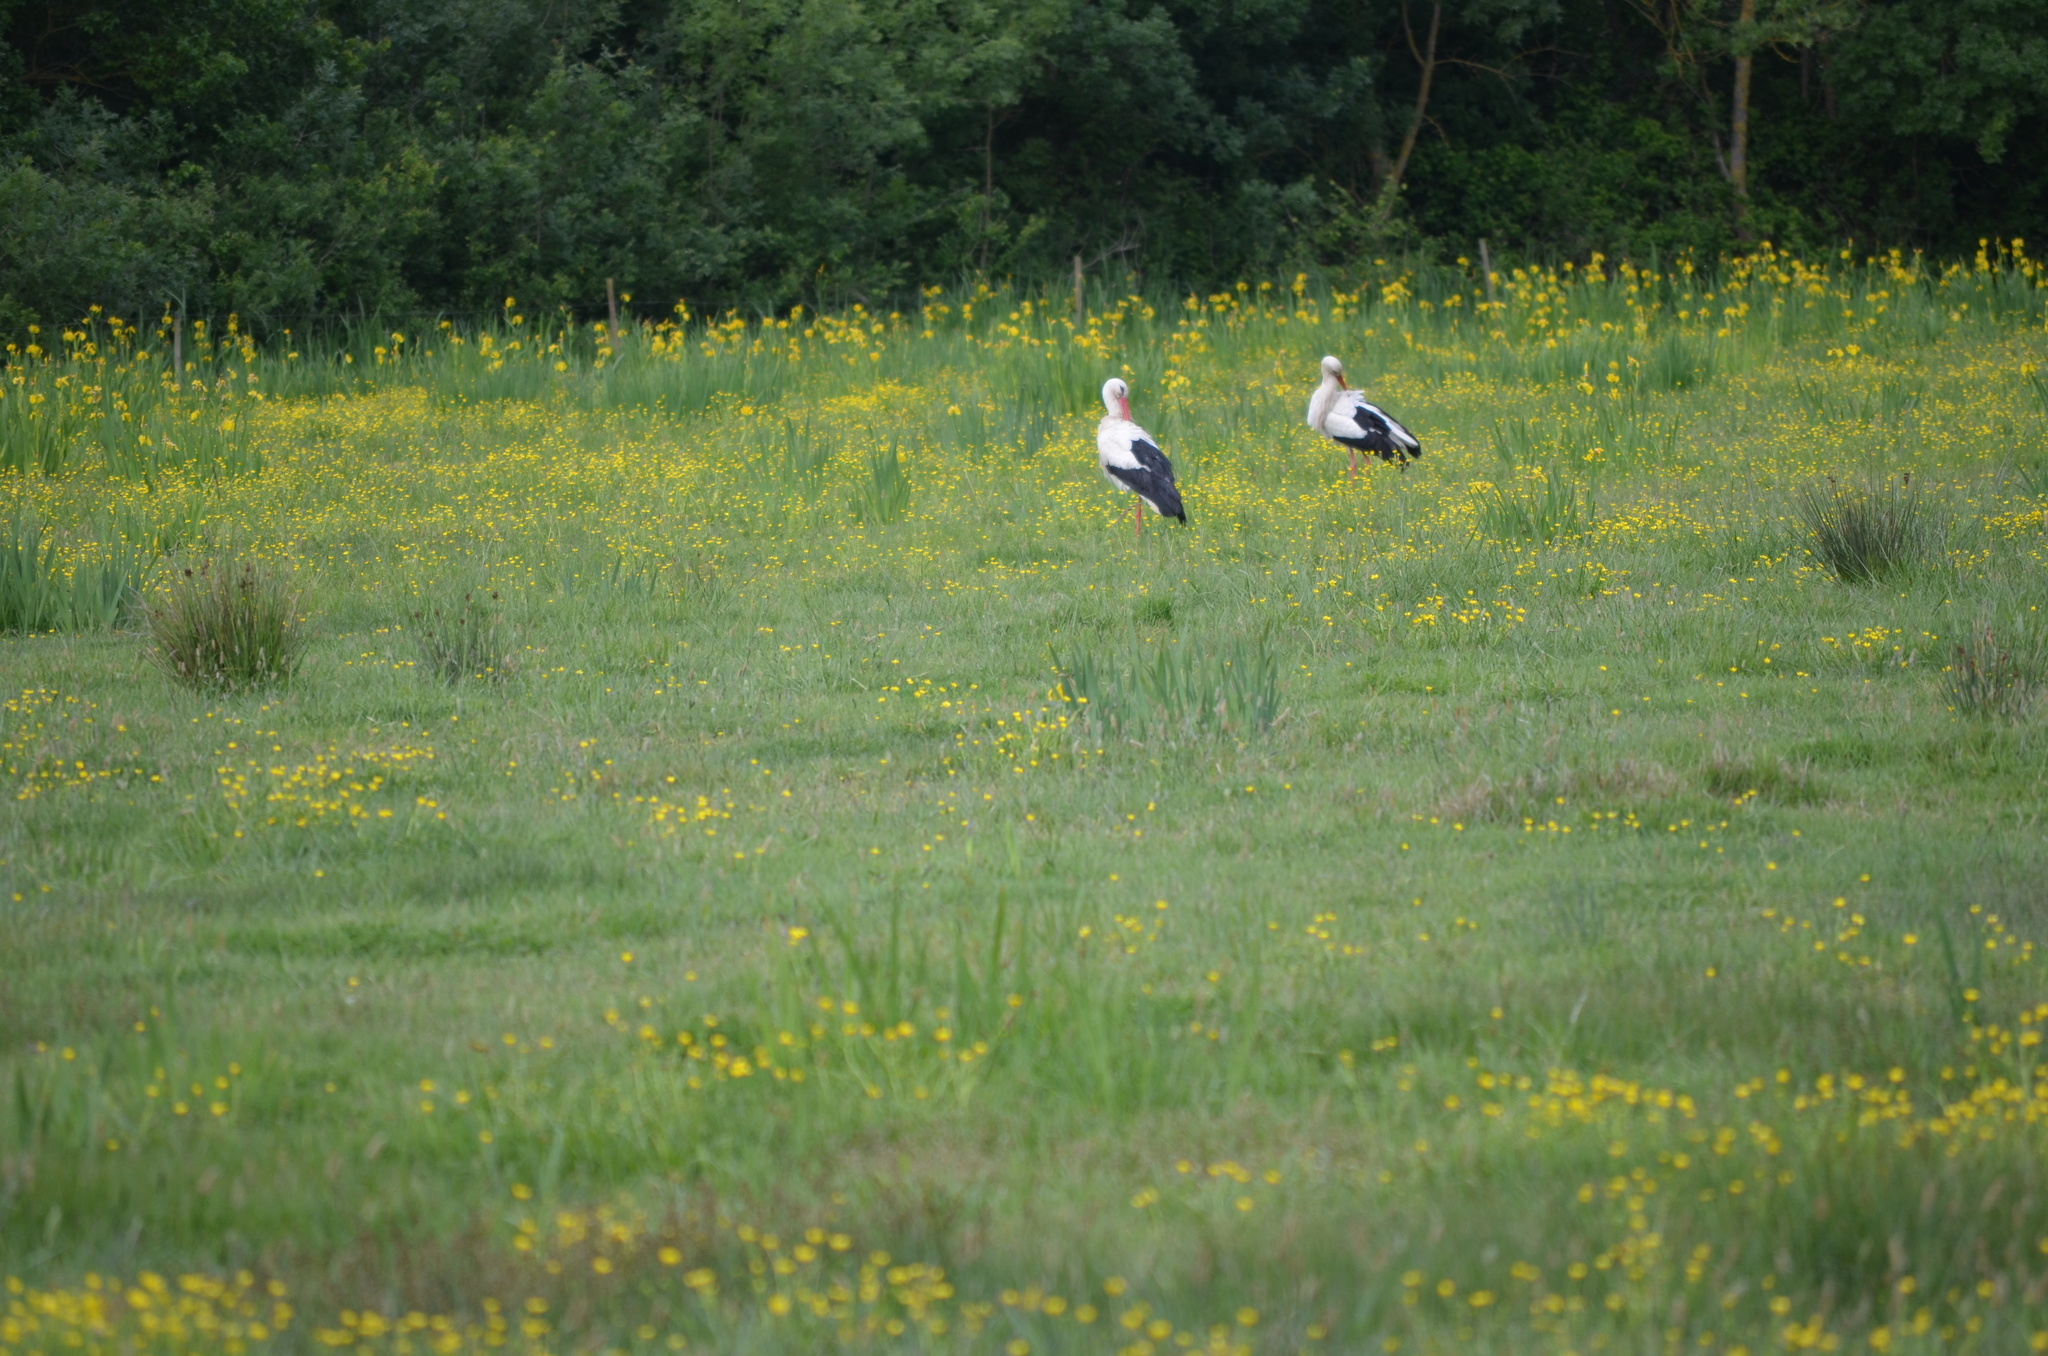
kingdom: Animalia
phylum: Chordata
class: Aves
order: Ciconiiformes
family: Ciconiidae
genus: Ciconia
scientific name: Ciconia ciconia
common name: White stork
